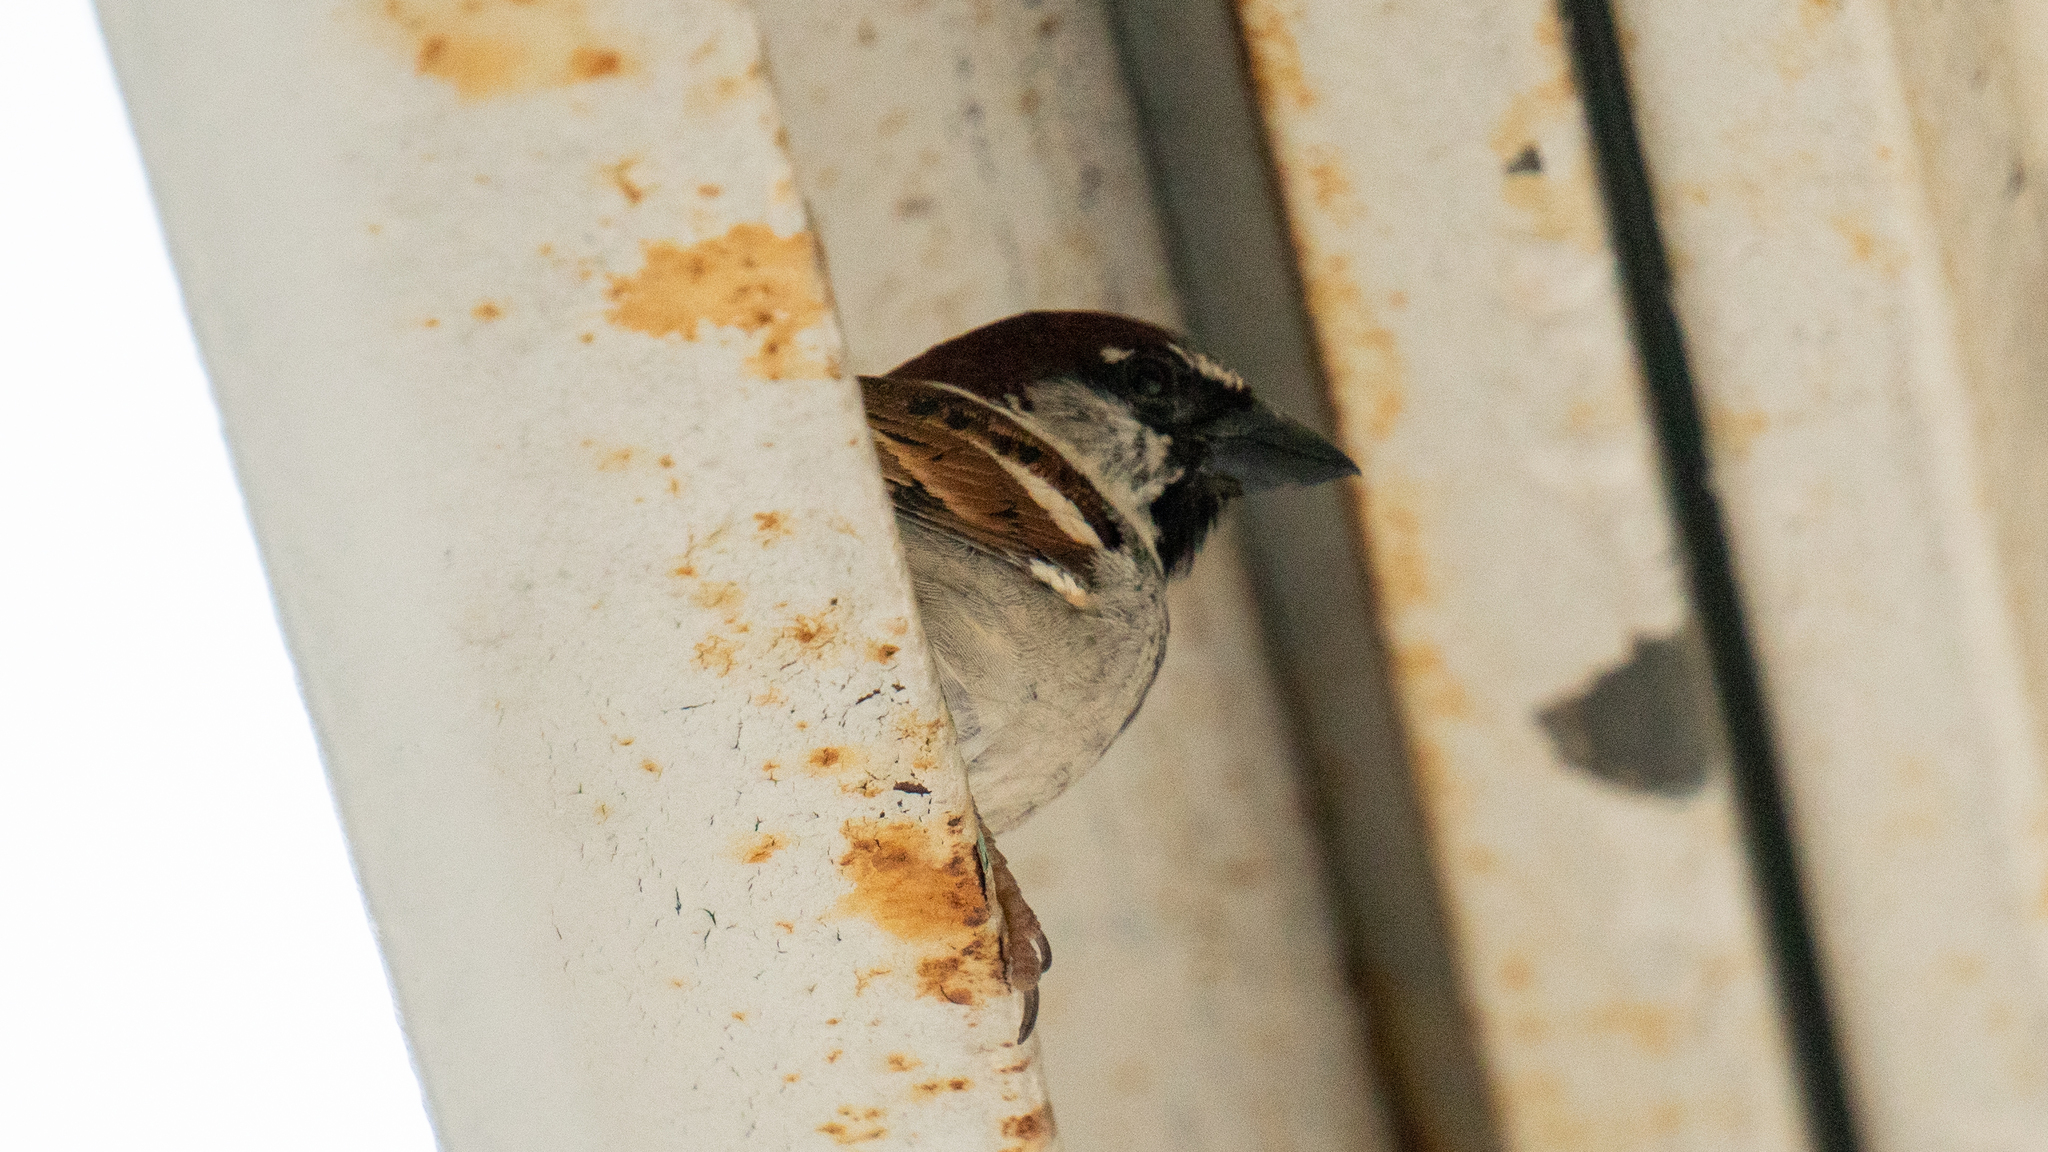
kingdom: Animalia
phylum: Chordata
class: Aves
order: Passeriformes
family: Passeridae
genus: Passer
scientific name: Passer domesticus
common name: House sparrow
